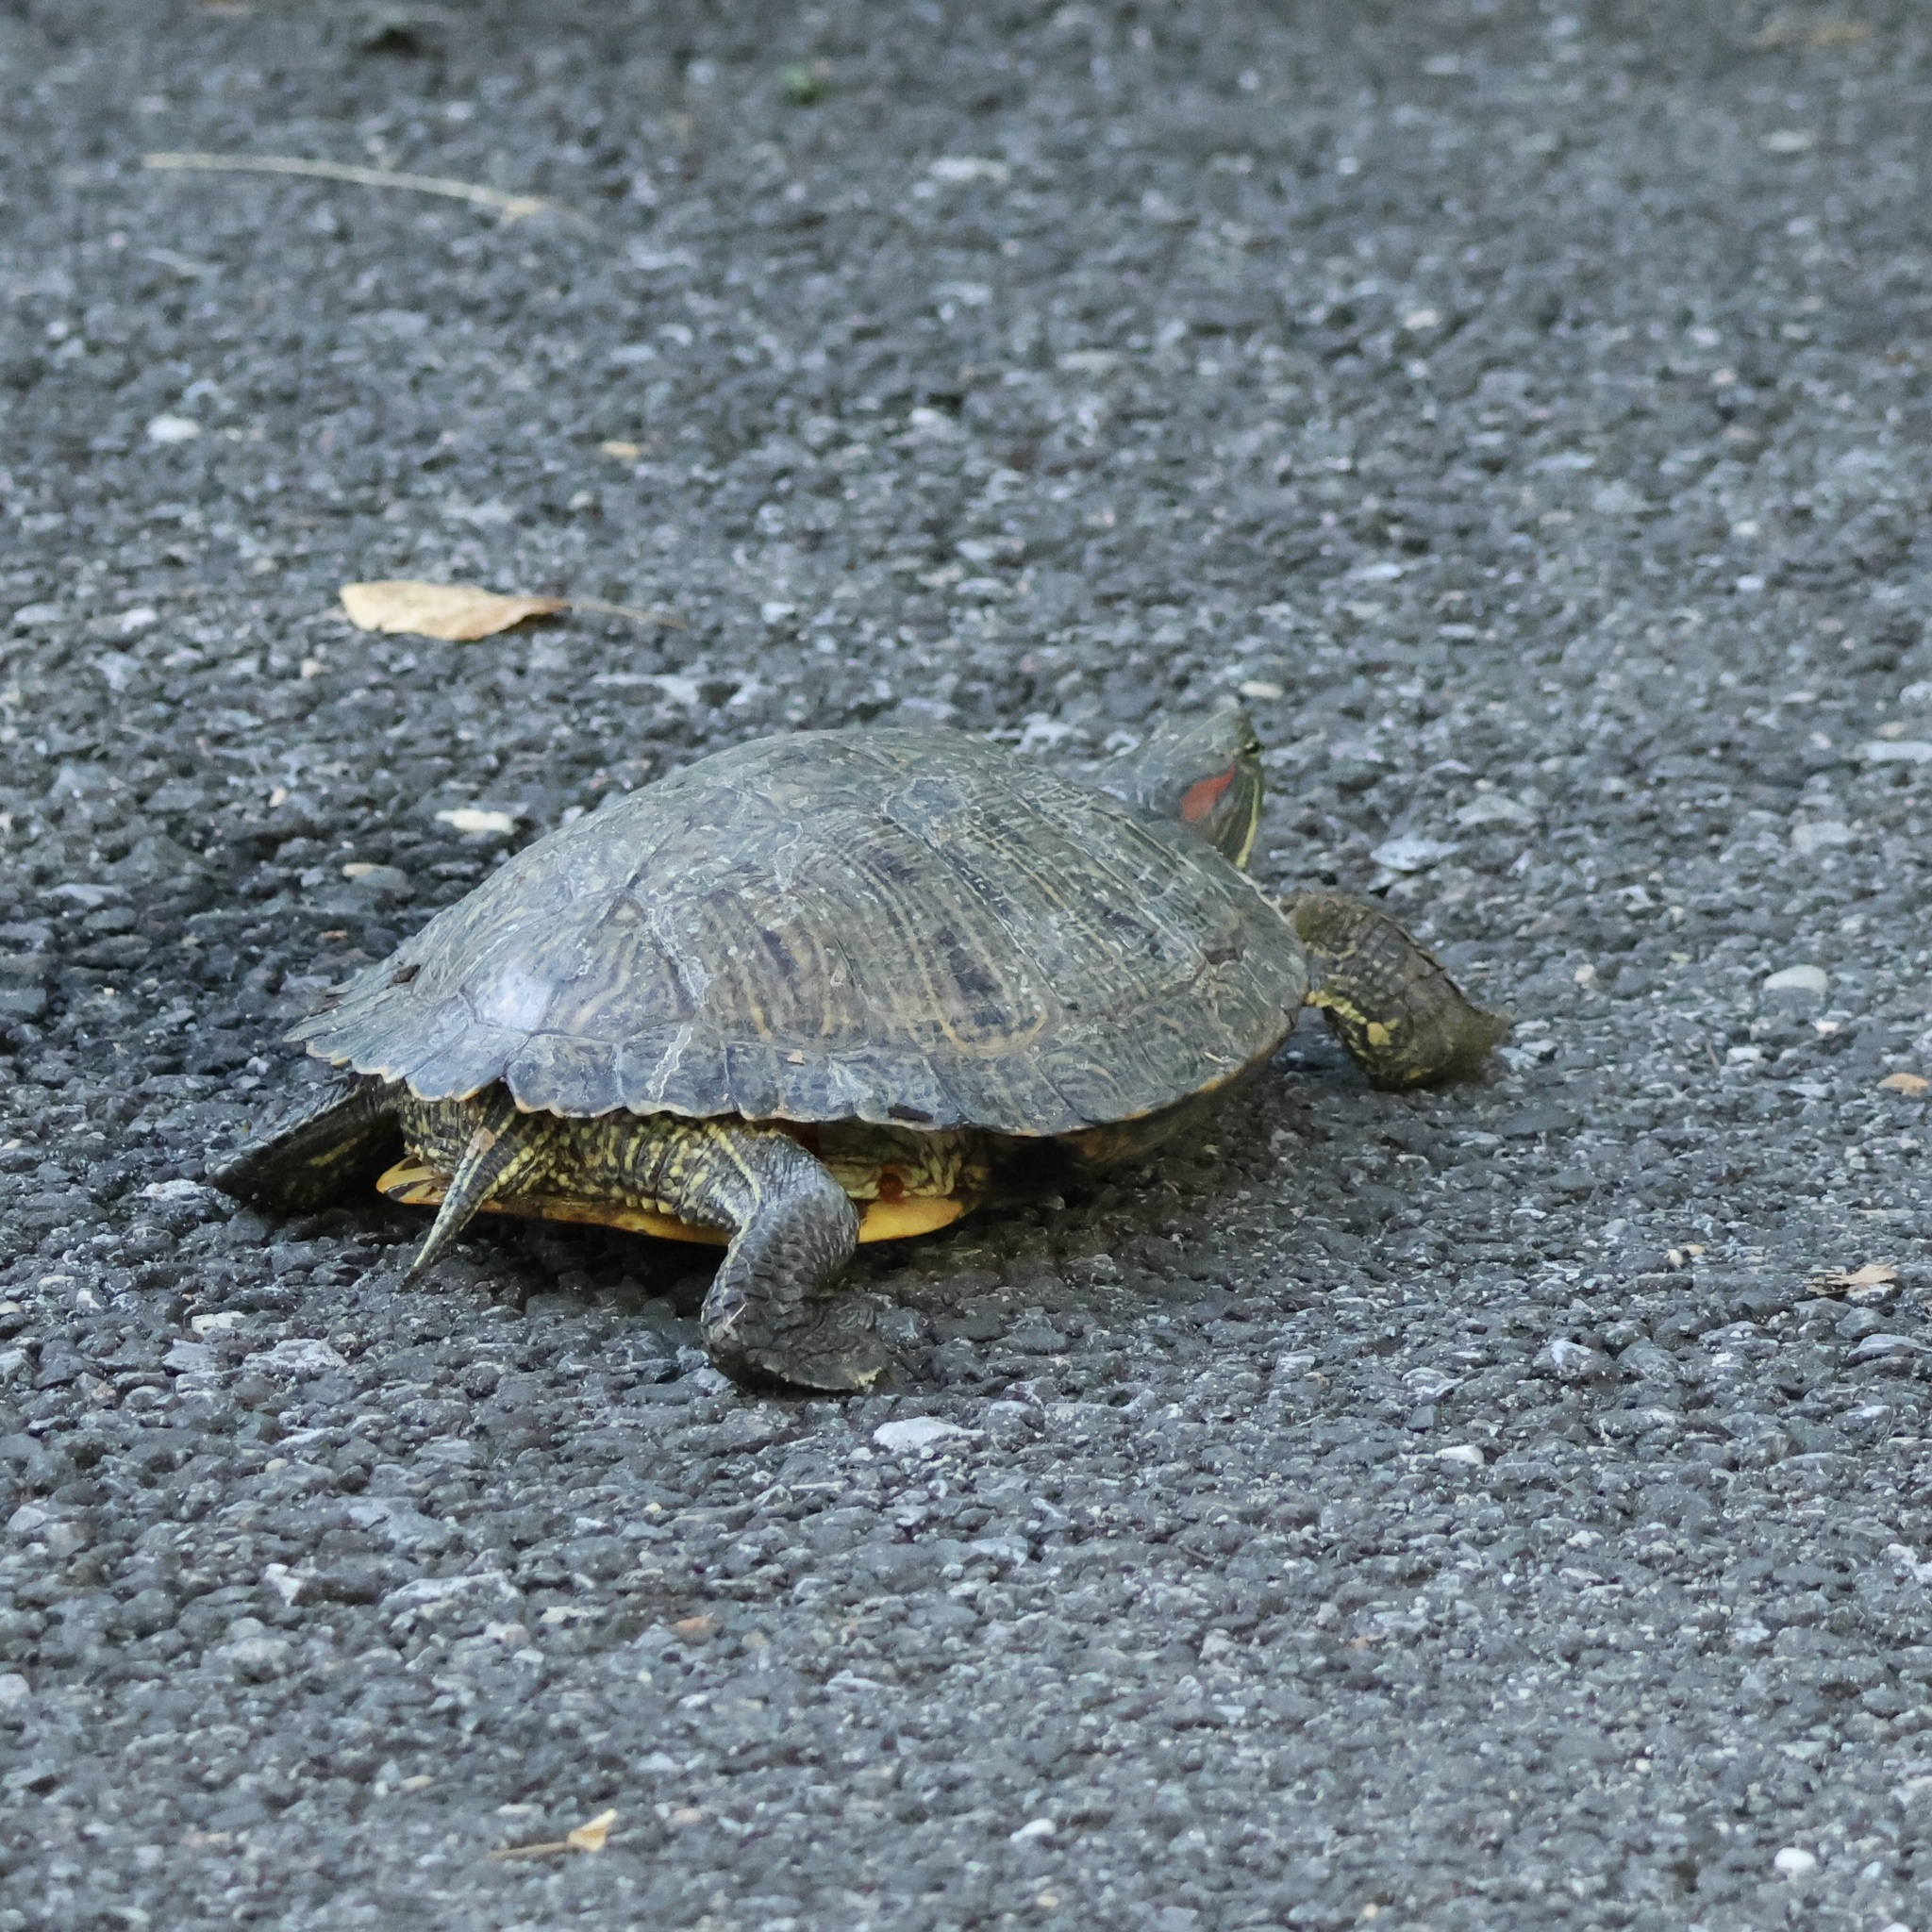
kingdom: Animalia
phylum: Chordata
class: Testudines
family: Emydidae
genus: Trachemys
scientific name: Trachemys scripta
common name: Slider
